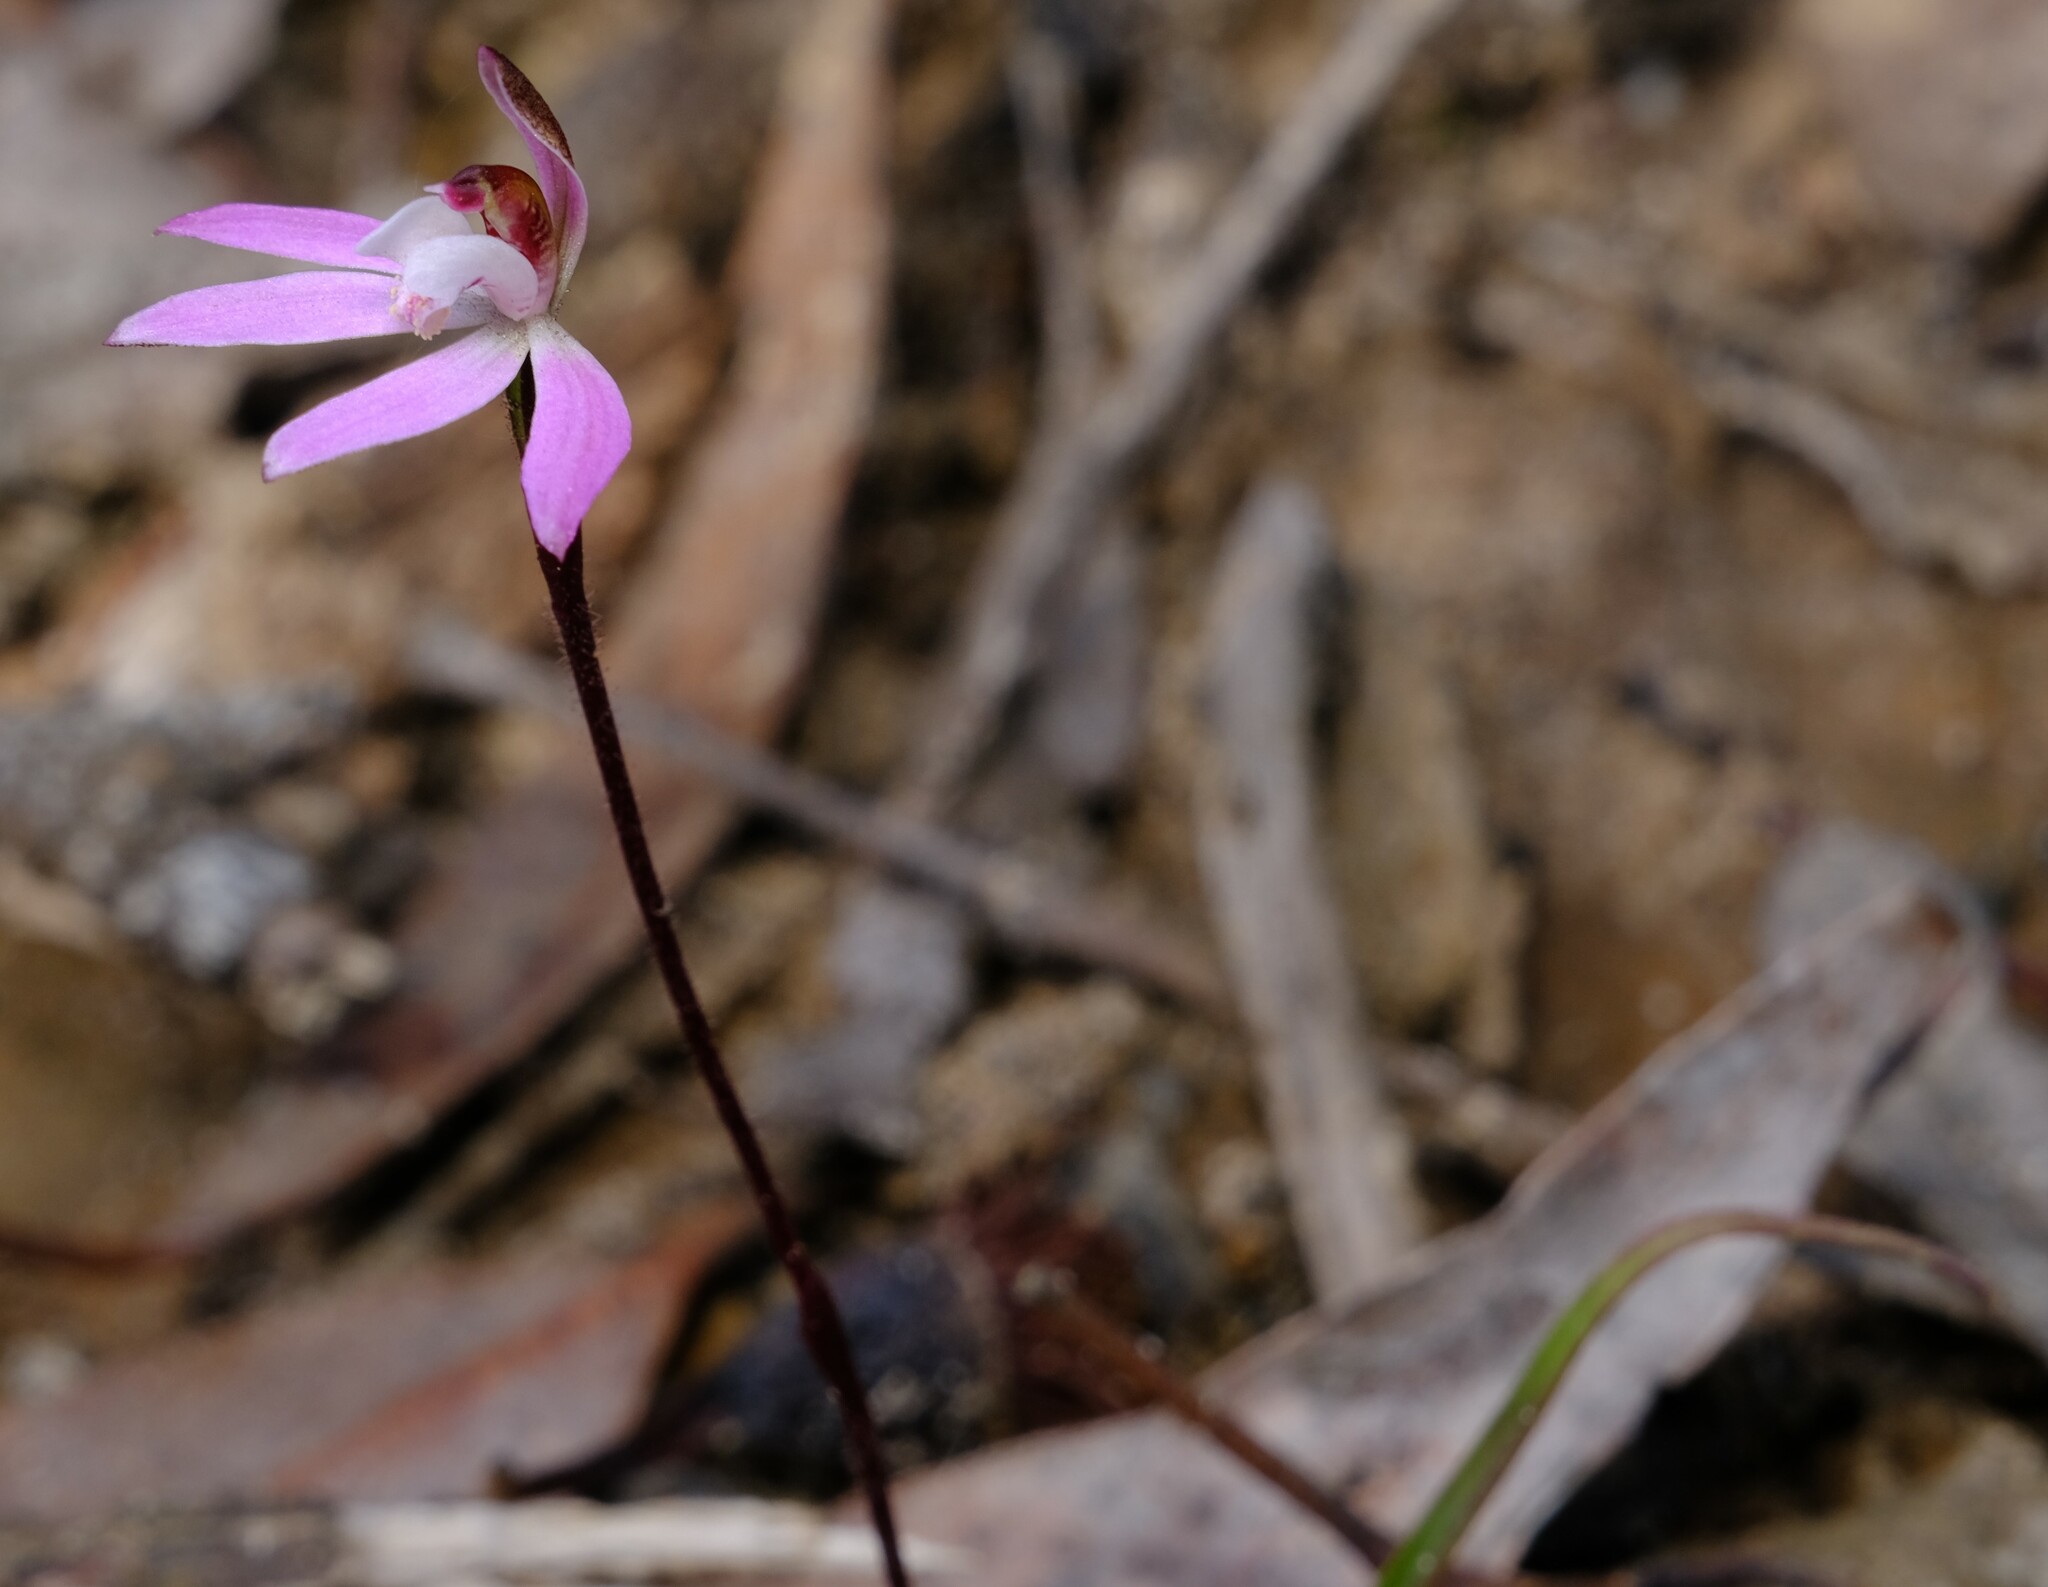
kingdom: Plantae
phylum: Tracheophyta
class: Liliopsida
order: Asparagales
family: Orchidaceae
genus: Caladenia
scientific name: Caladenia fuscata
